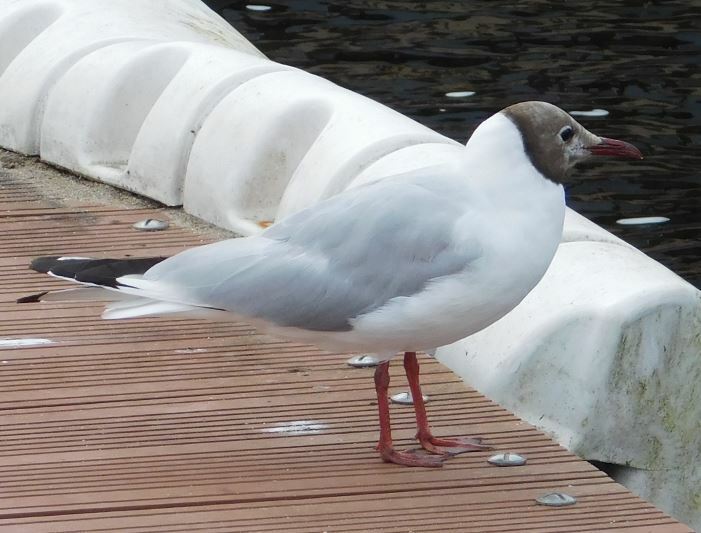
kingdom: Animalia
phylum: Chordata
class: Aves
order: Charadriiformes
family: Laridae
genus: Chroicocephalus
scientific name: Chroicocephalus ridibundus
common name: Black-headed gull
